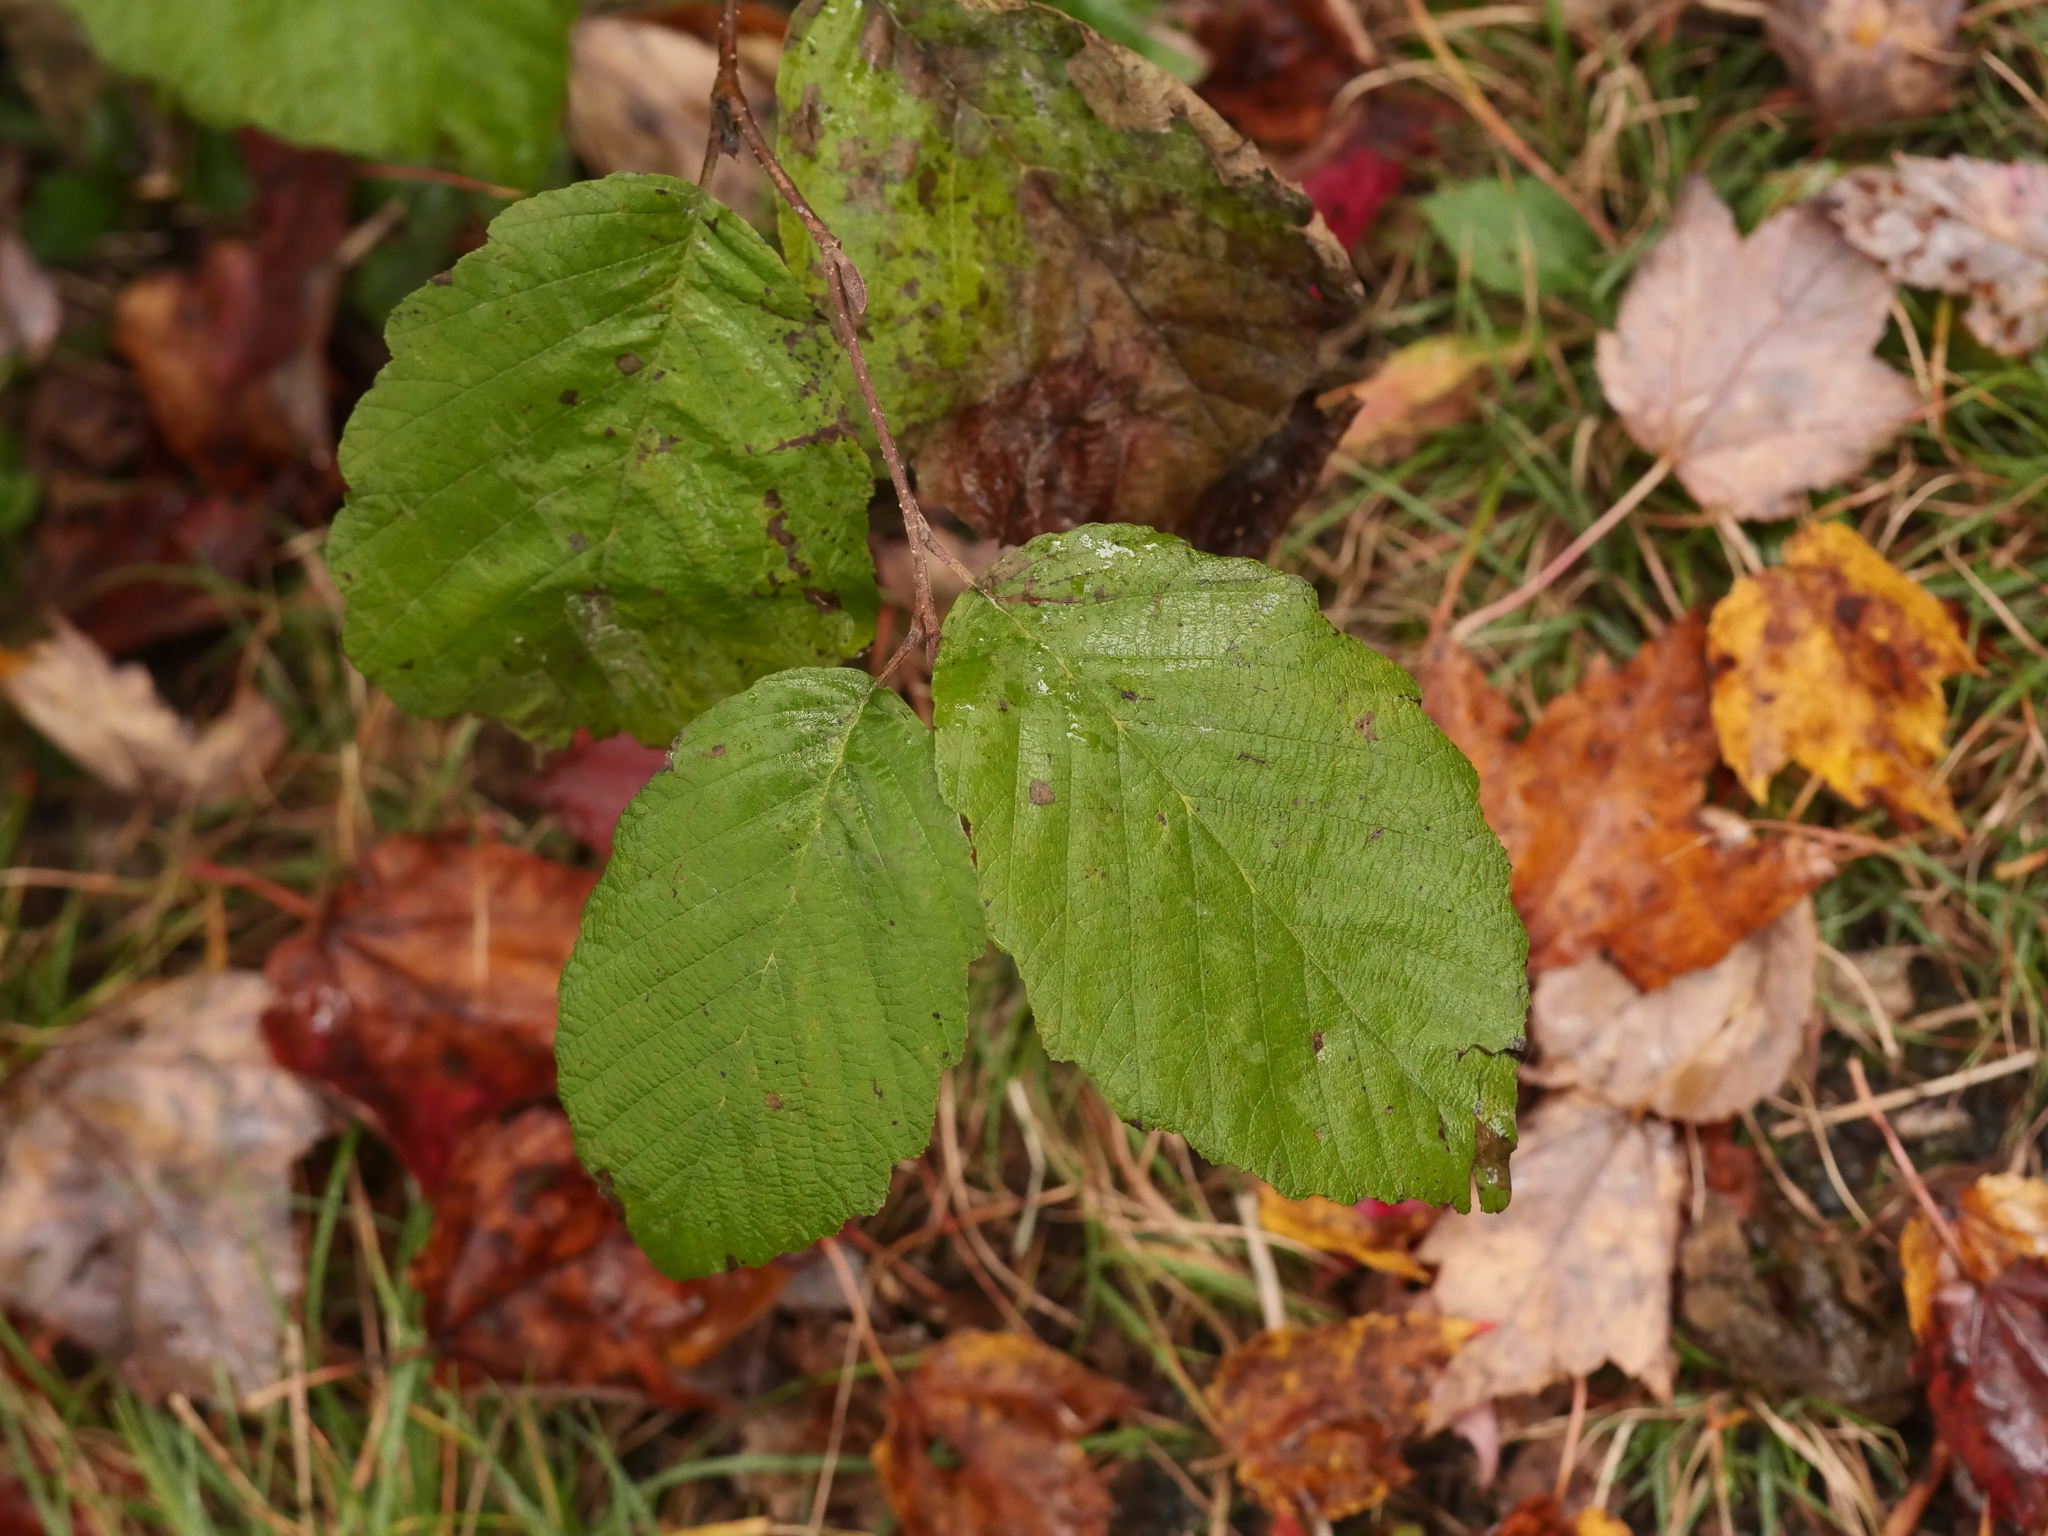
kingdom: Plantae
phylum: Tracheophyta
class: Magnoliopsida
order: Fagales
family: Betulaceae
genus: Alnus
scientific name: Alnus incana
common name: Grey alder
